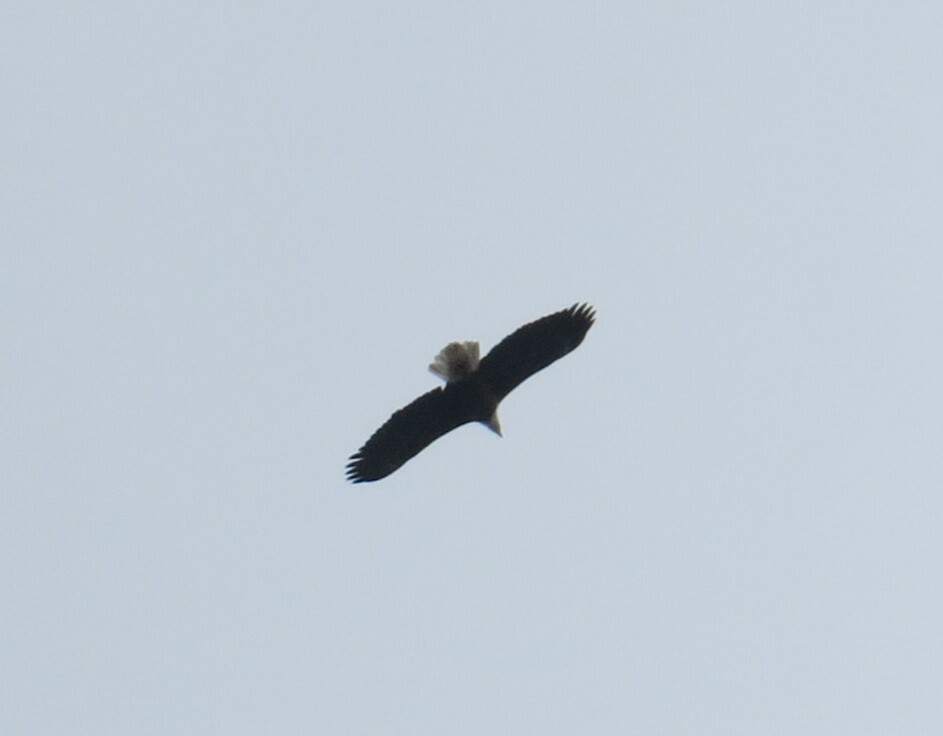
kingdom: Animalia
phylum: Chordata
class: Aves
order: Accipitriformes
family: Accipitridae
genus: Haliaeetus
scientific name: Haliaeetus leucocephalus
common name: Bald eagle
